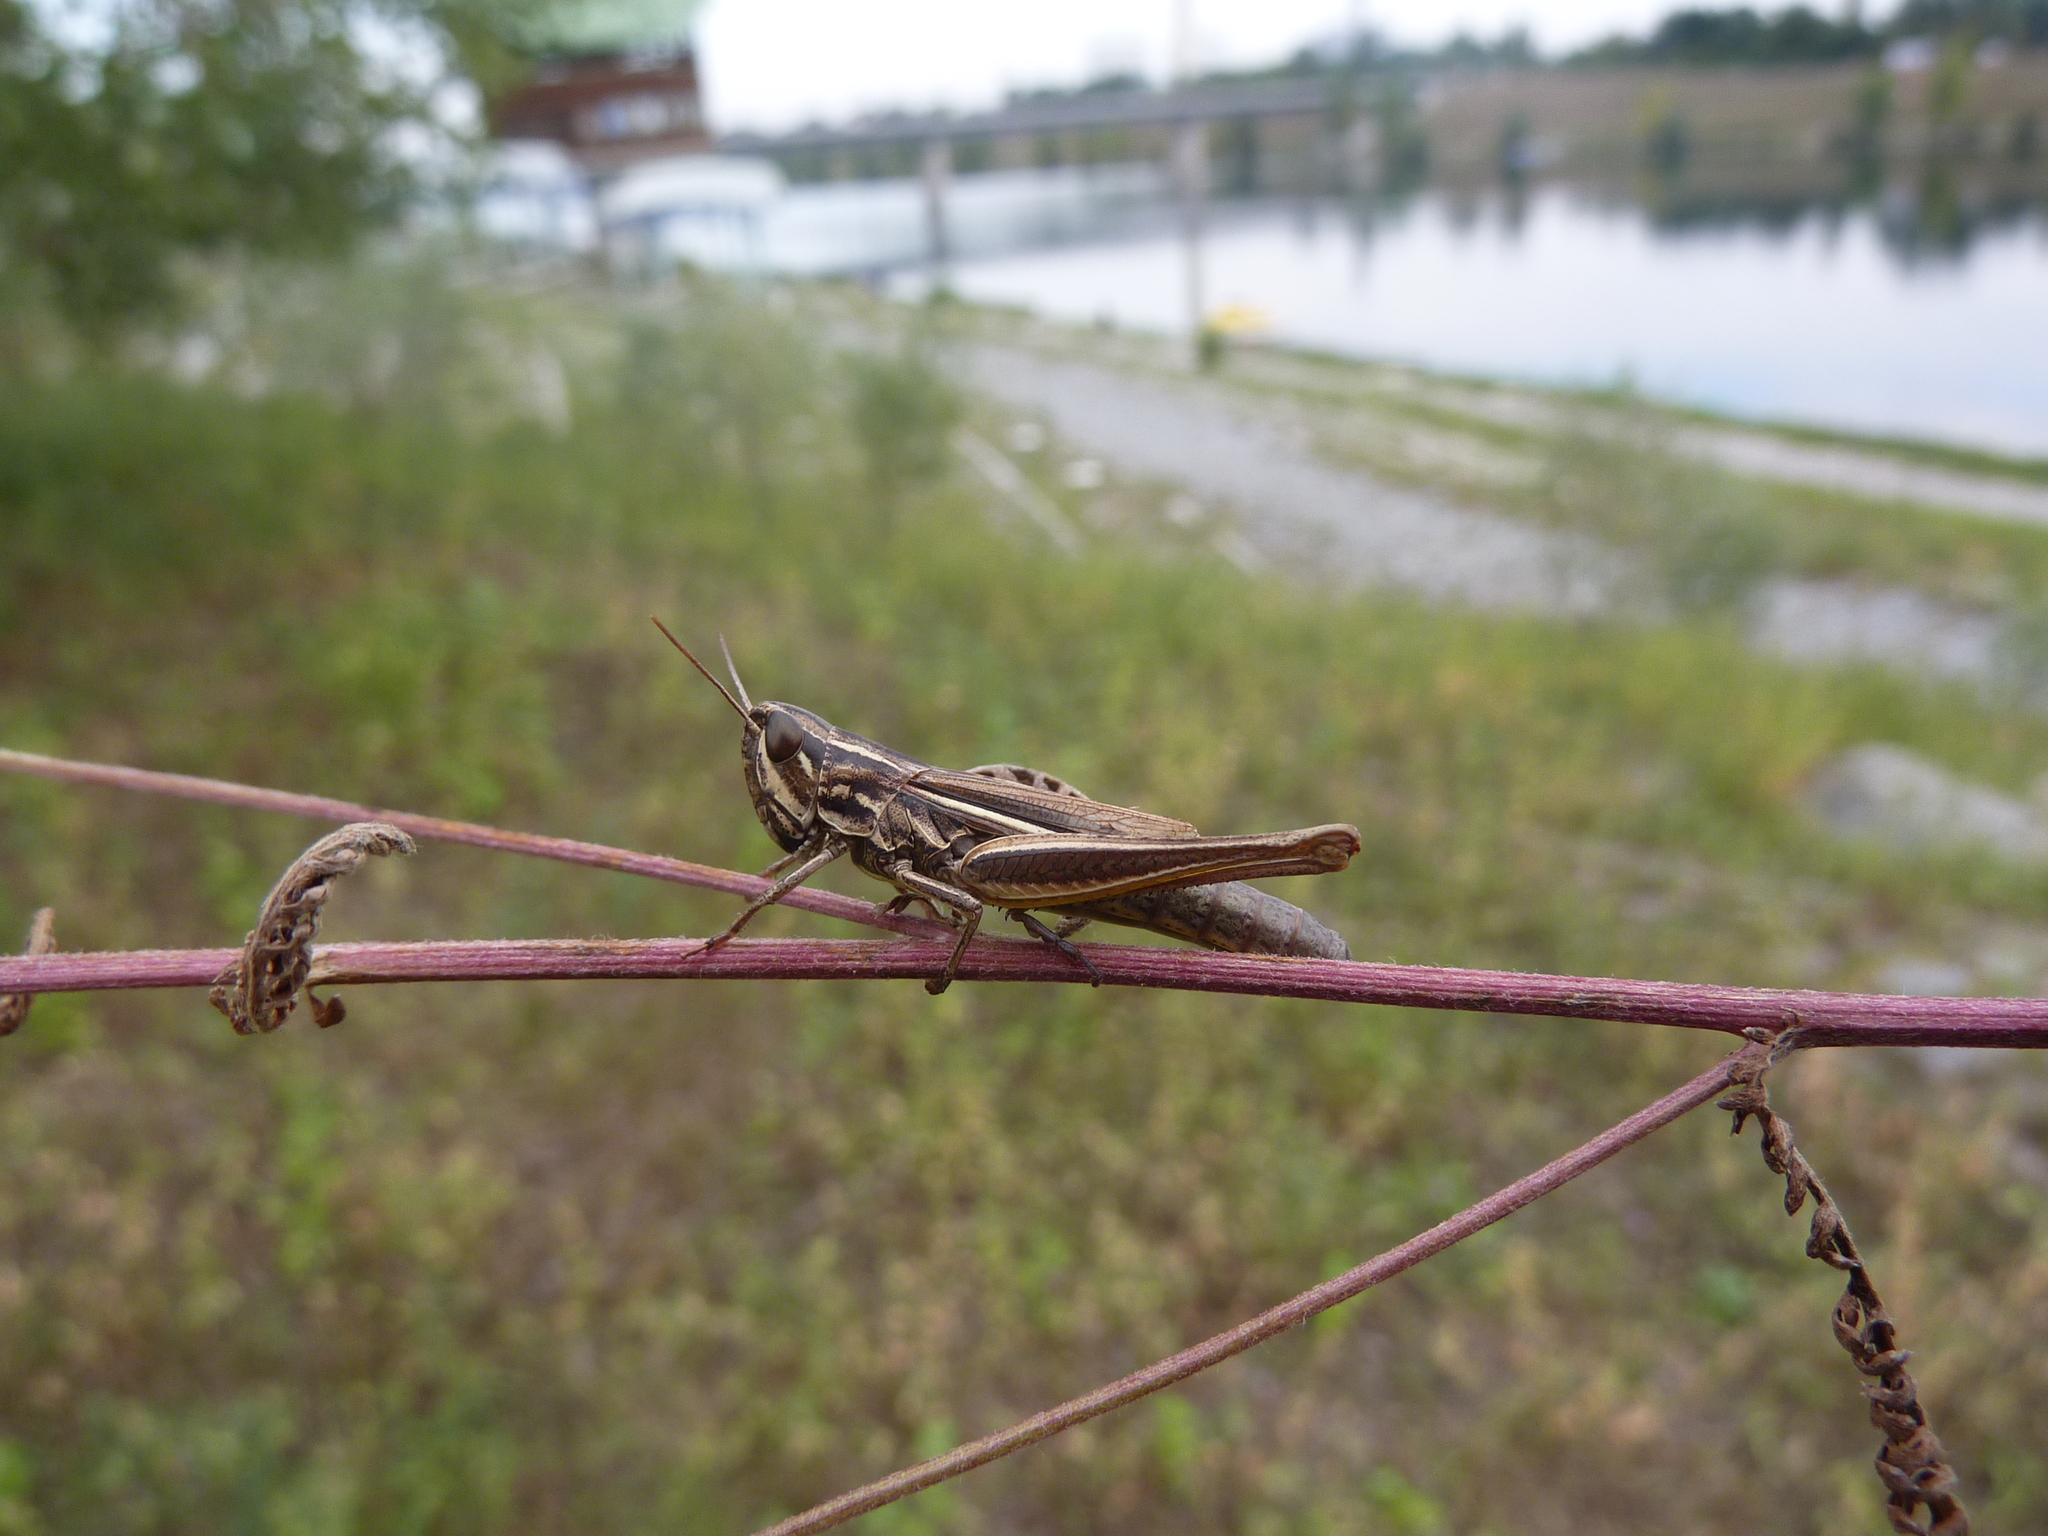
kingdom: Animalia
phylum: Arthropoda
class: Insecta
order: Orthoptera
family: Acrididae
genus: Euchorthippus
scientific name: Euchorthippus declivus
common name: Common straw grasshopper
